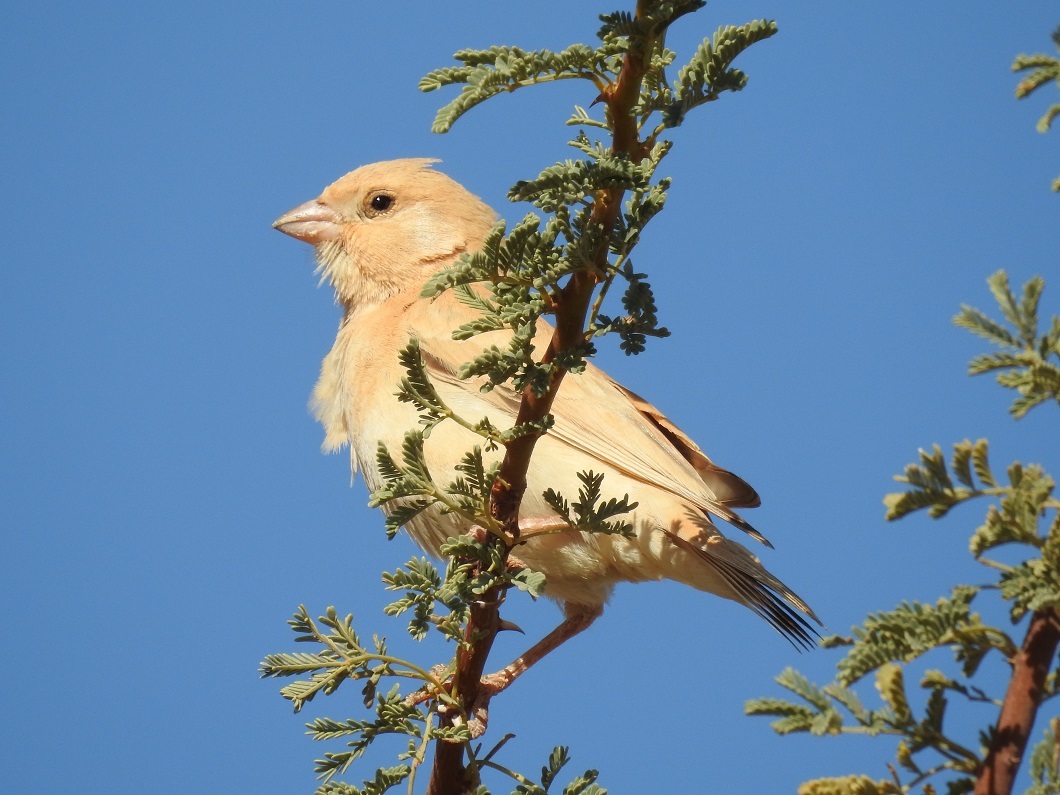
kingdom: Animalia
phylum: Chordata
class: Aves
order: Passeriformes
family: Passeridae
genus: Passer
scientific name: Passer simplex
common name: Desert sparrow
